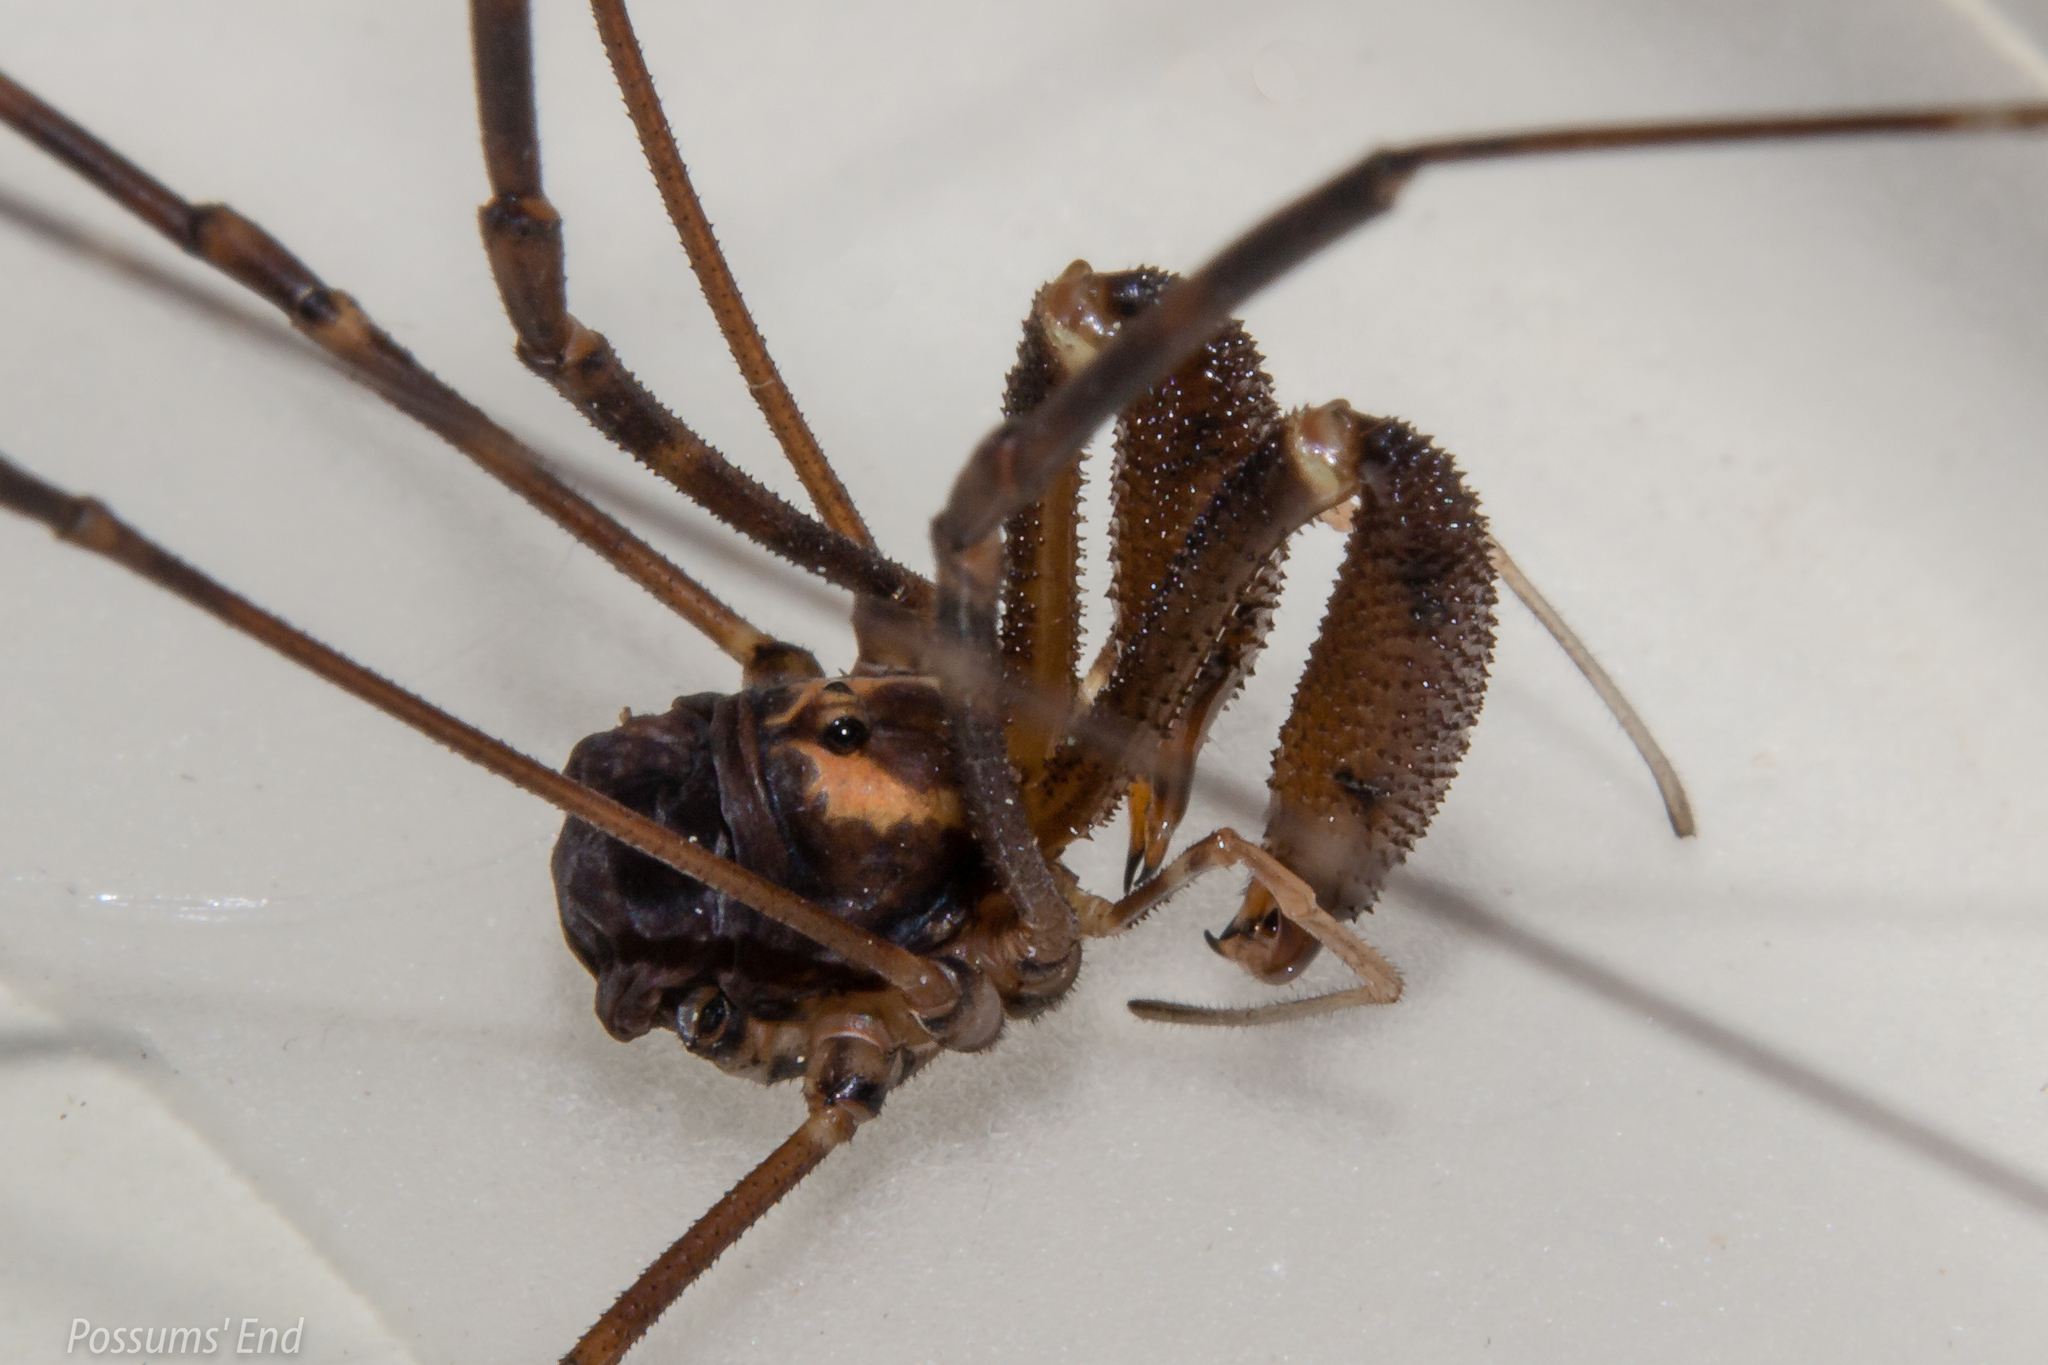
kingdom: Animalia
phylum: Arthropoda
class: Arachnida
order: Opiliones
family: Neopilionidae
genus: Forsteropsalis
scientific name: Forsteropsalis marplesi
